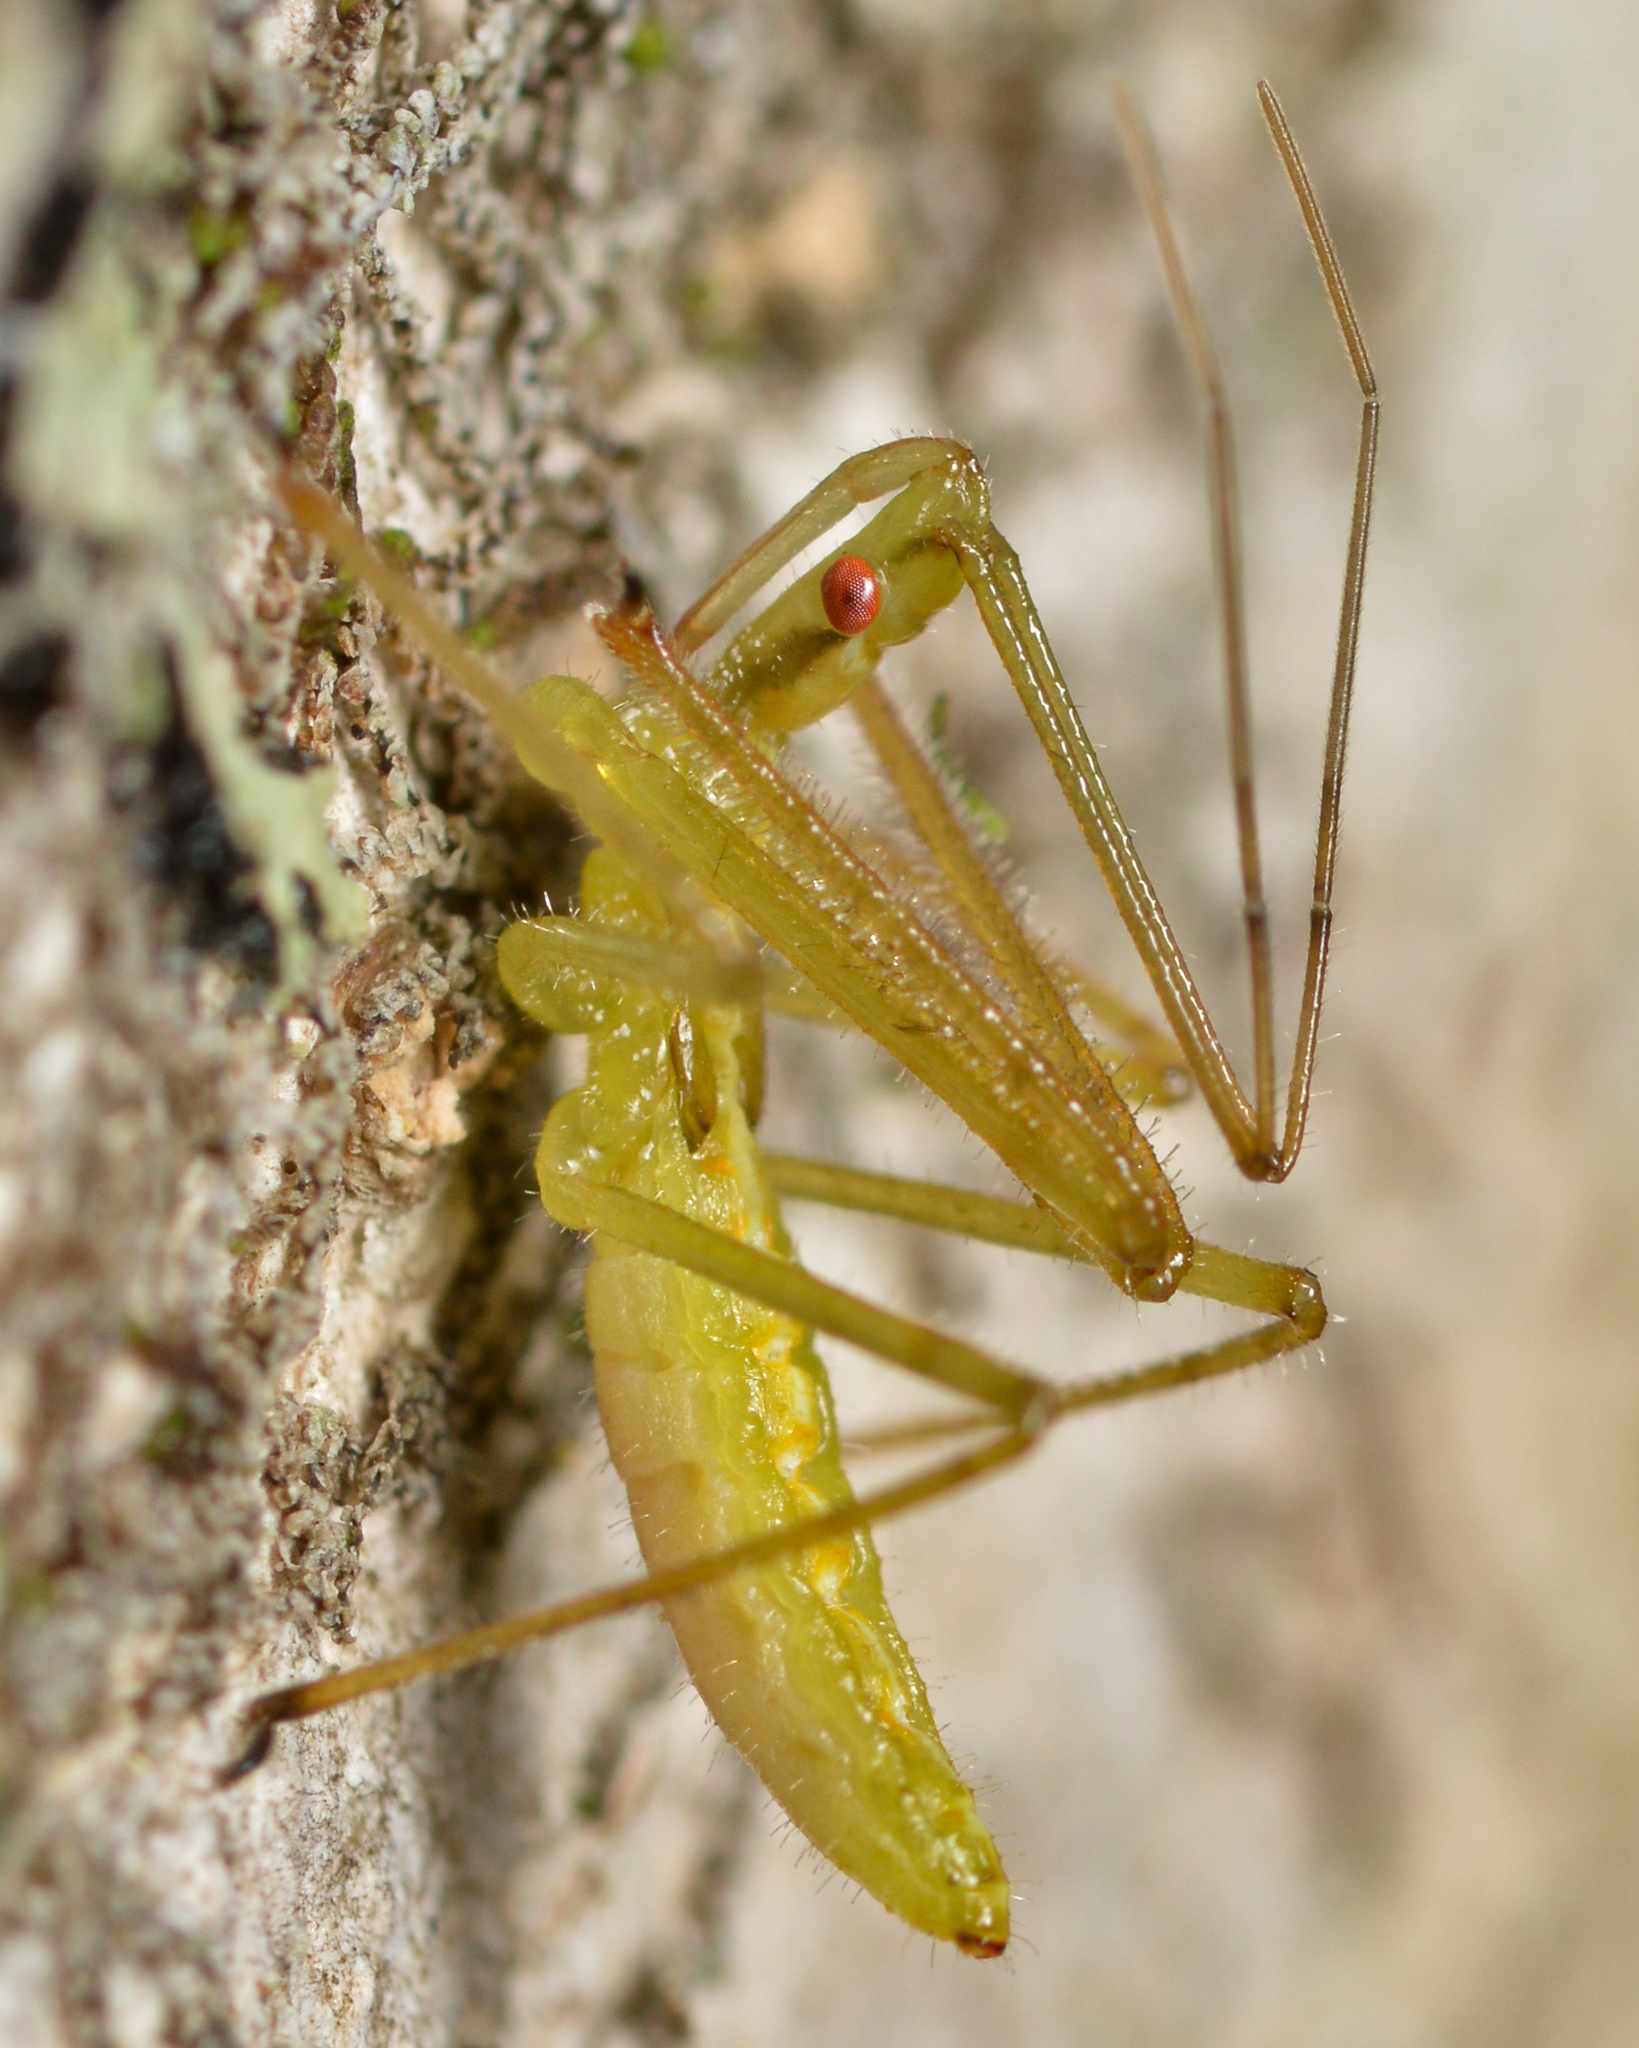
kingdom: Animalia
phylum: Arthropoda
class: Insecta
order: Hemiptera
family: Reduviidae
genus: Zelus
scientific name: Zelus luridus
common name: Pale green assassin bug
